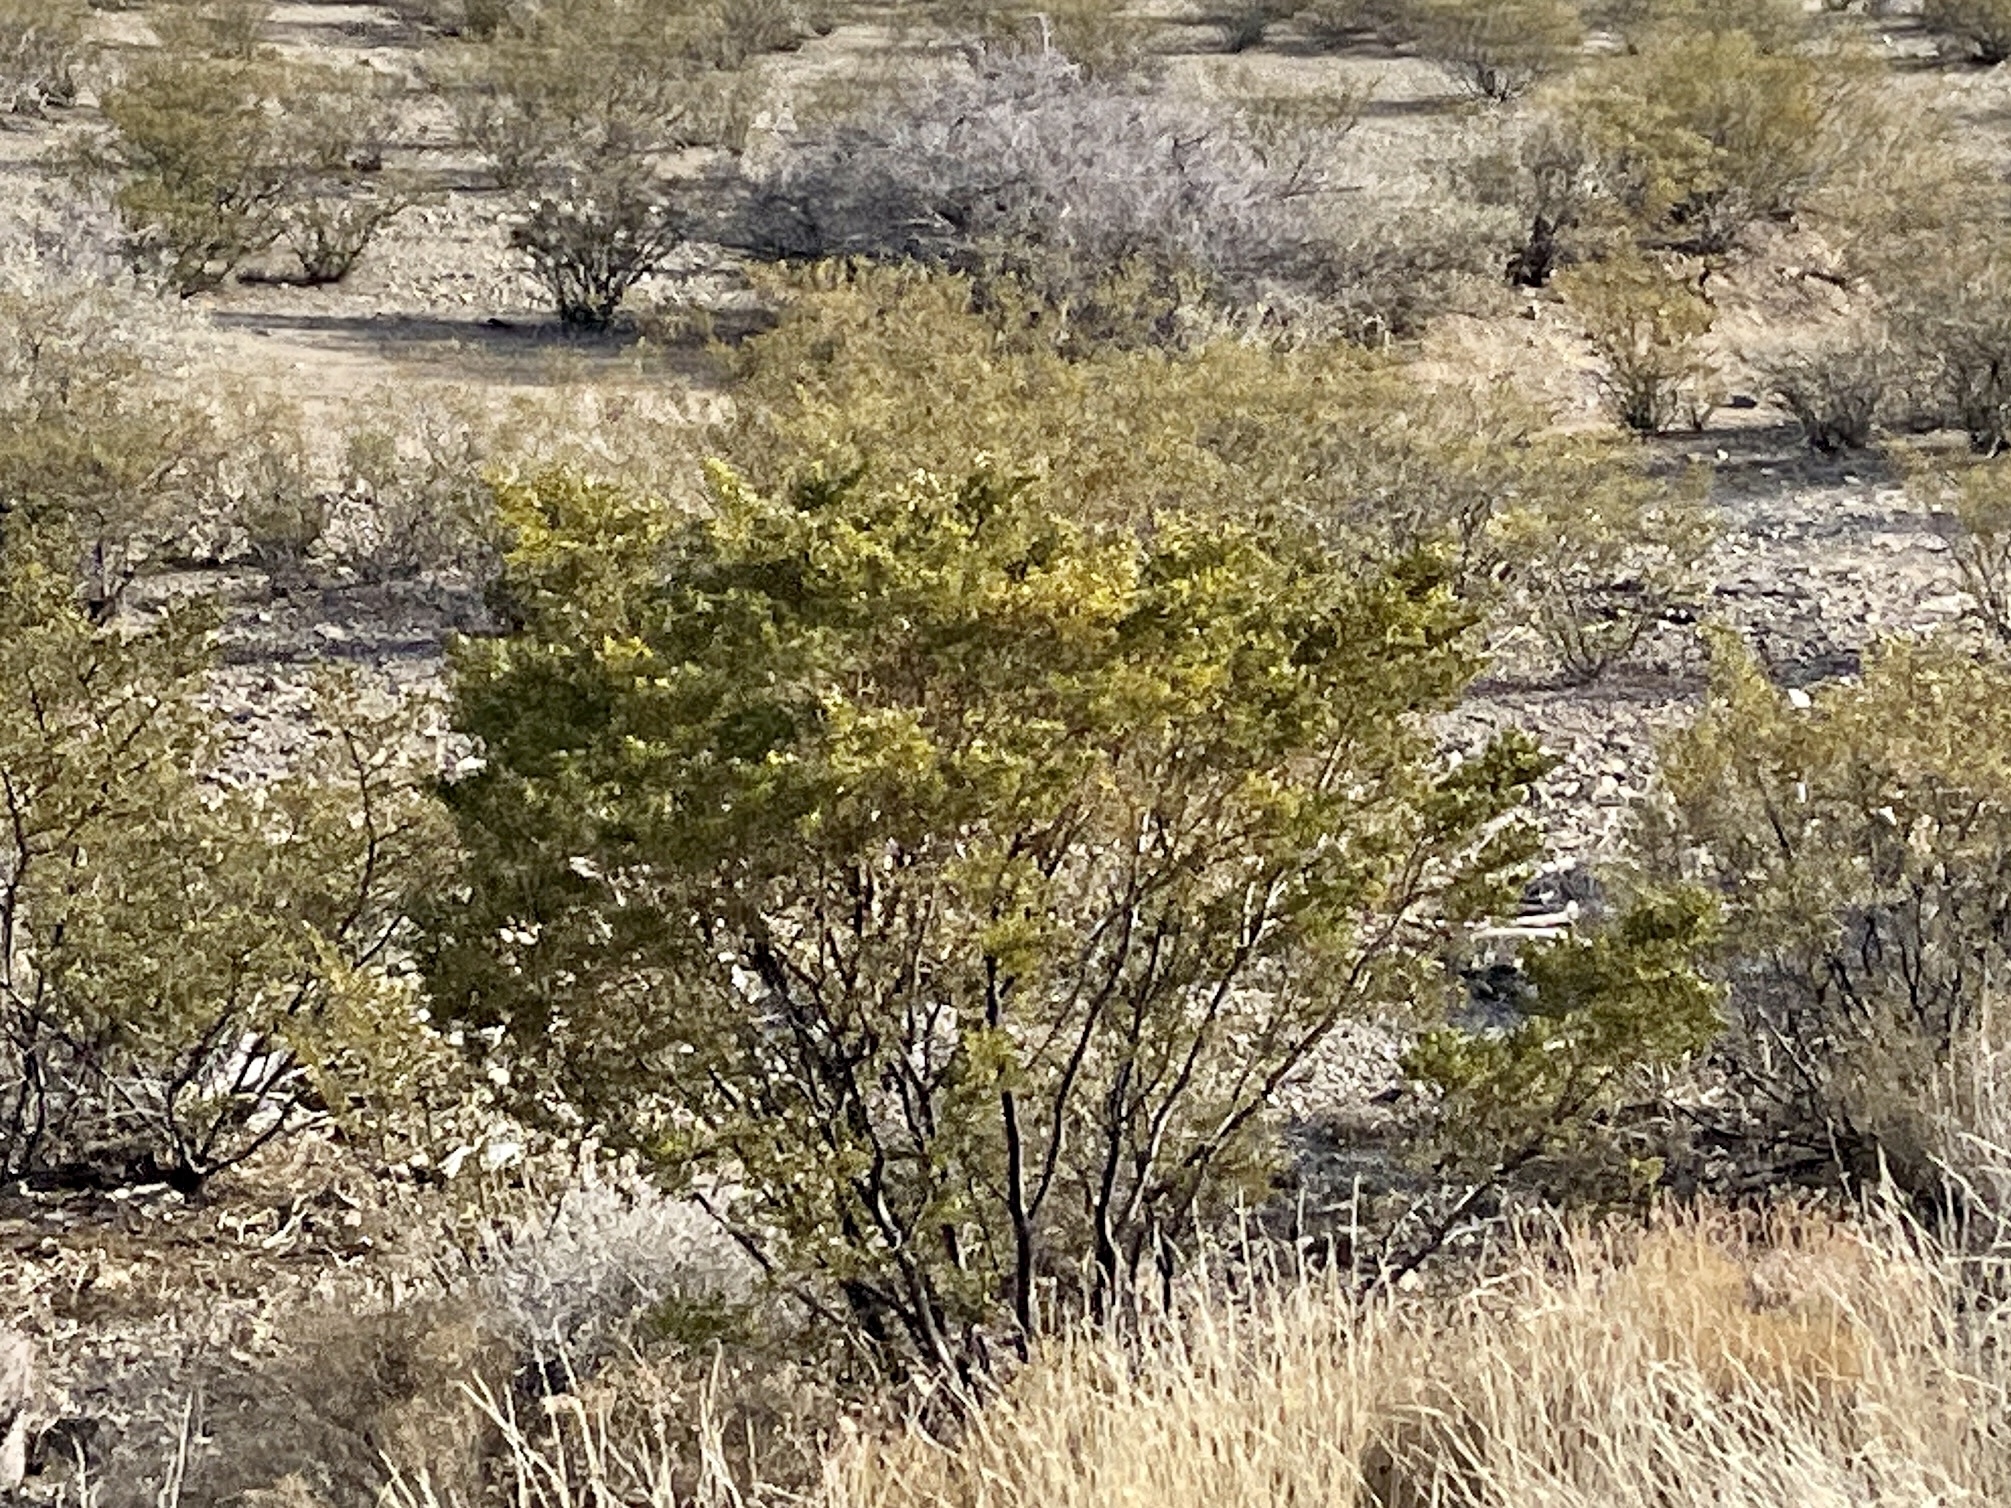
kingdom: Plantae
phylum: Tracheophyta
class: Magnoliopsida
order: Zygophyllales
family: Zygophyllaceae
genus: Larrea
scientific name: Larrea tridentata
